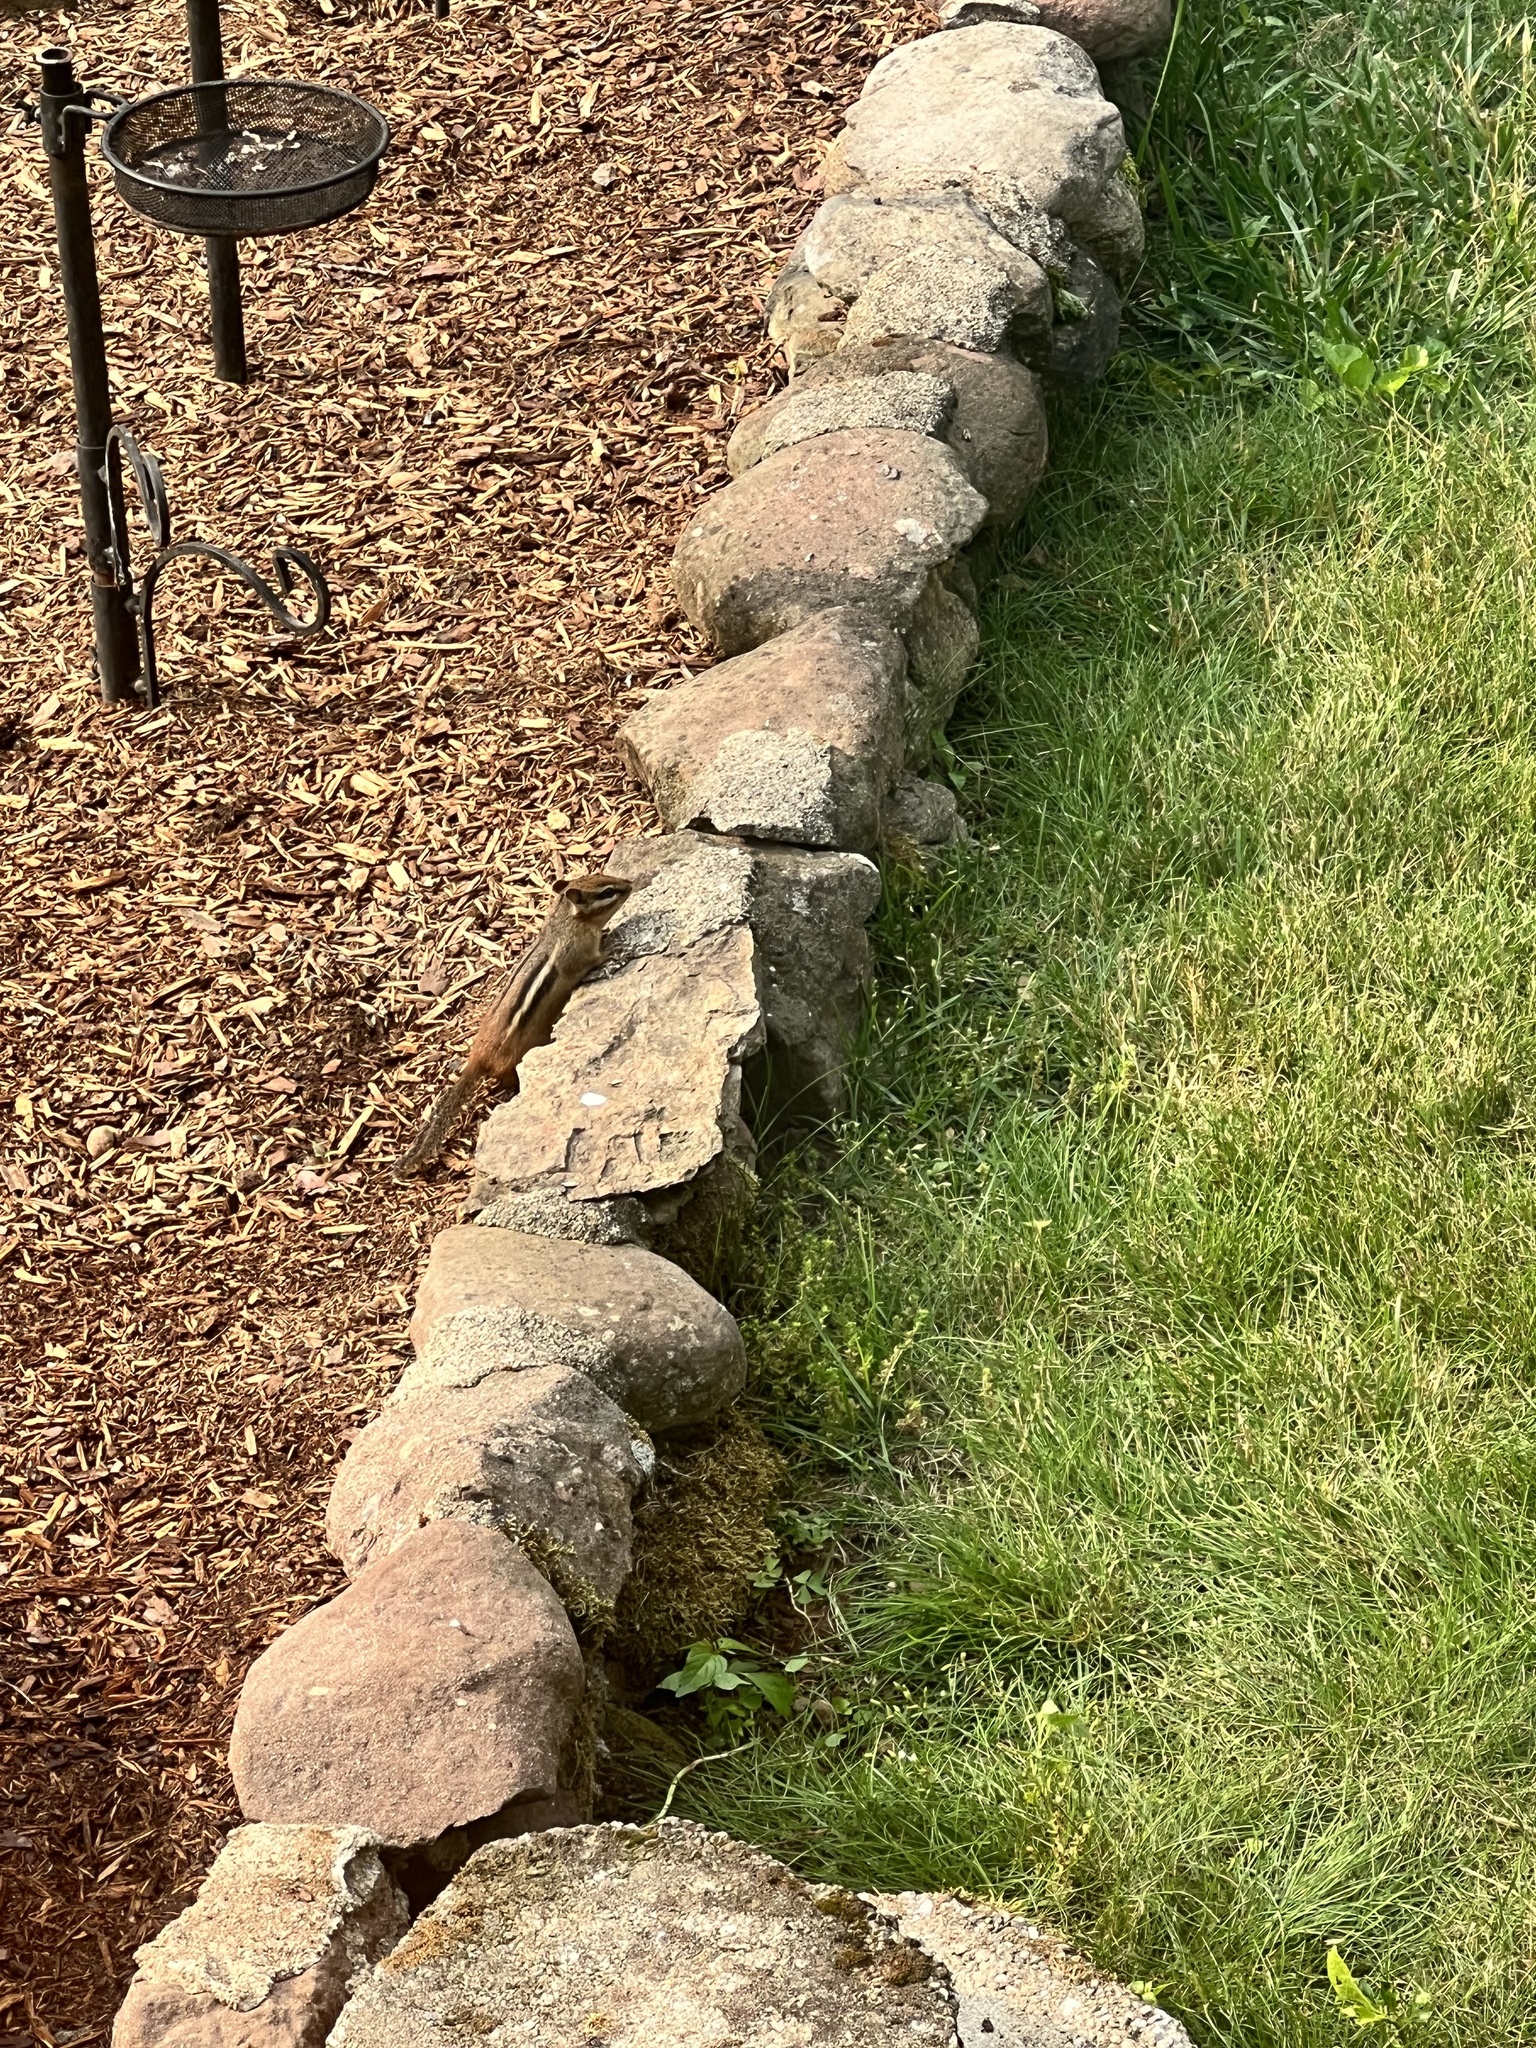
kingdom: Animalia
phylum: Chordata
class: Mammalia
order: Rodentia
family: Sciuridae
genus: Tamias
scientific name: Tamias striatus
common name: Eastern chipmunk
